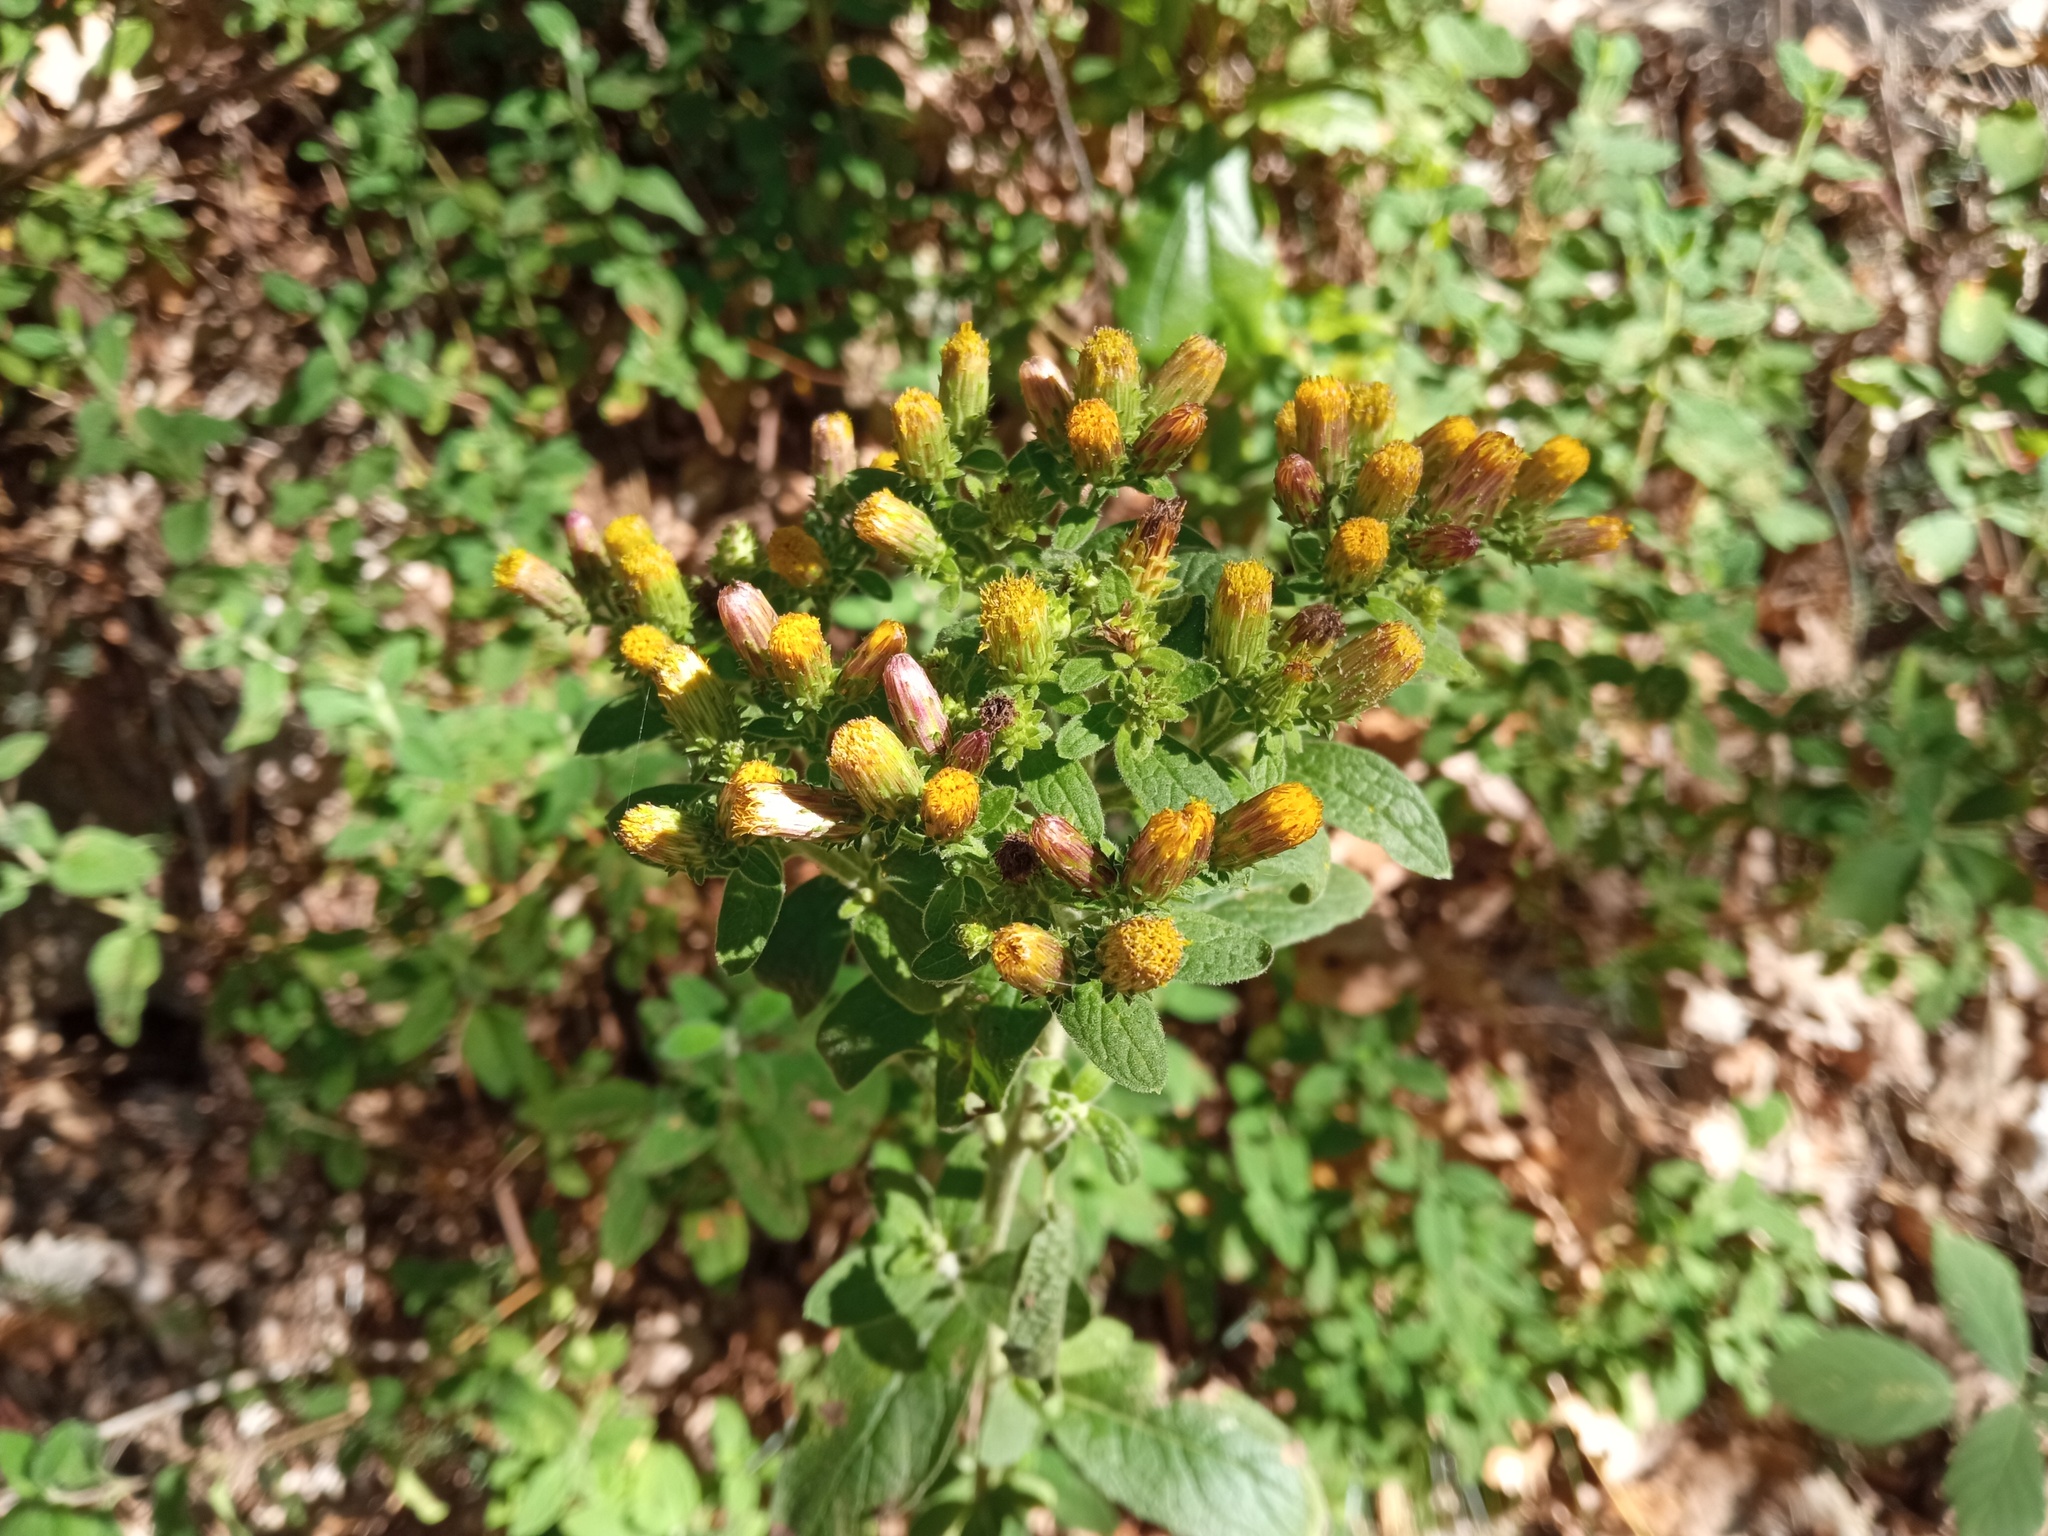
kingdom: Plantae
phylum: Tracheophyta
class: Magnoliopsida
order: Asterales
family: Asteraceae
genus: Pentanema
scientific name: Pentanema squarrosum
